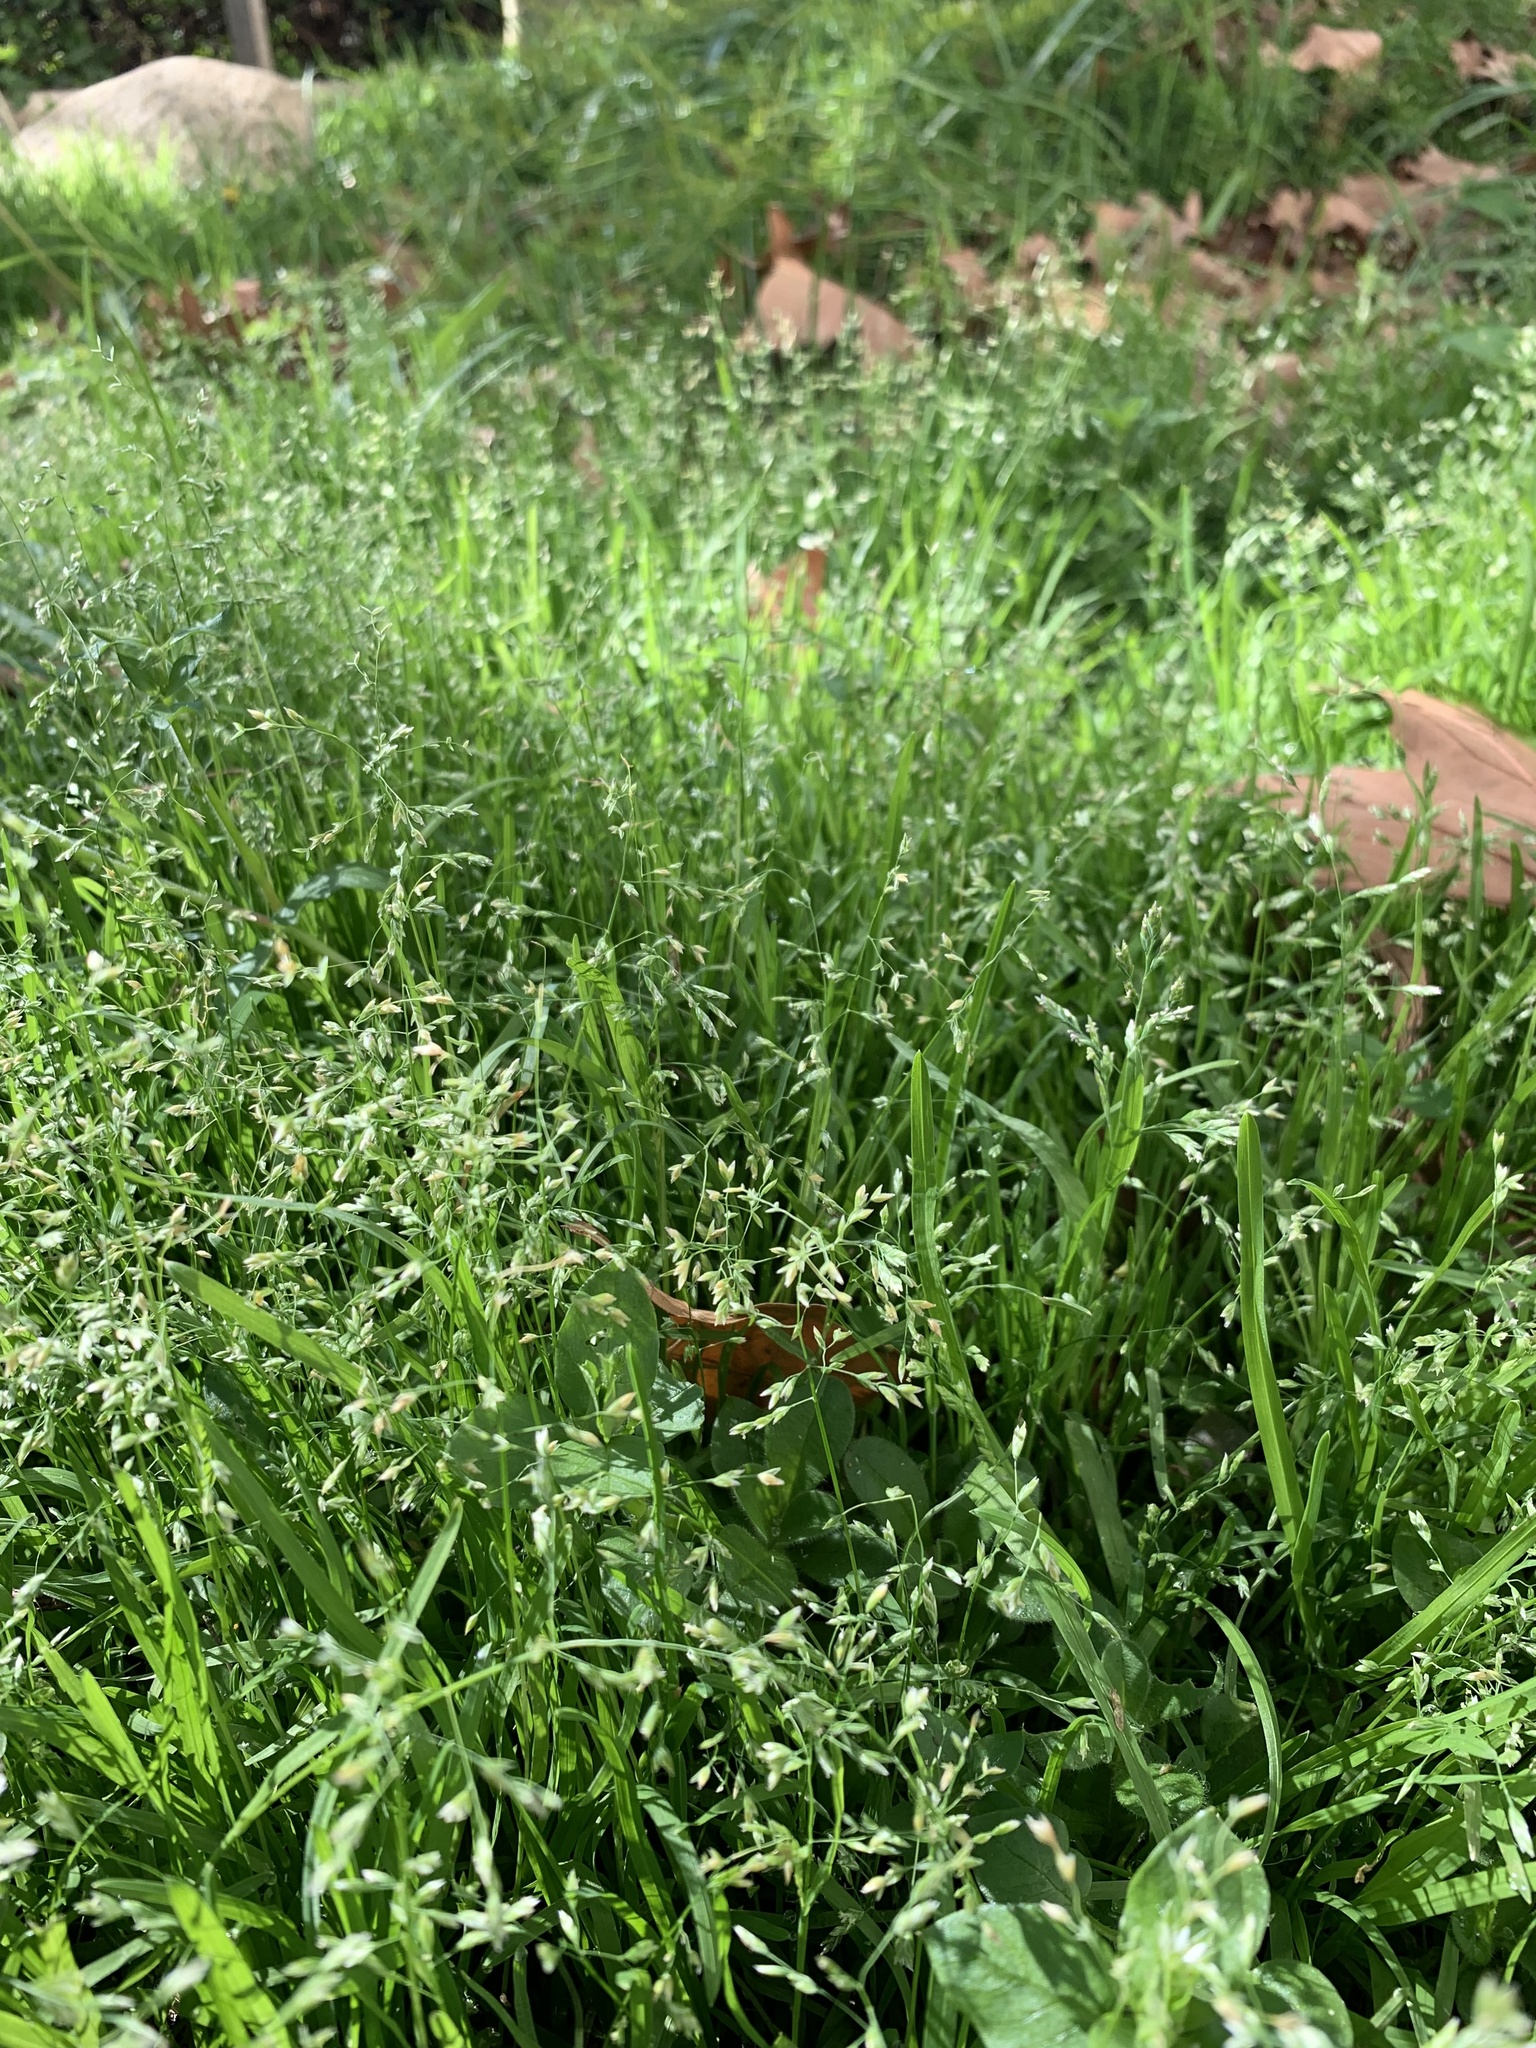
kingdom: Plantae
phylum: Tracheophyta
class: Liliopsida
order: Poales
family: Poaceae
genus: Poa
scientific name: Poa annua
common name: Annual bluegrass
